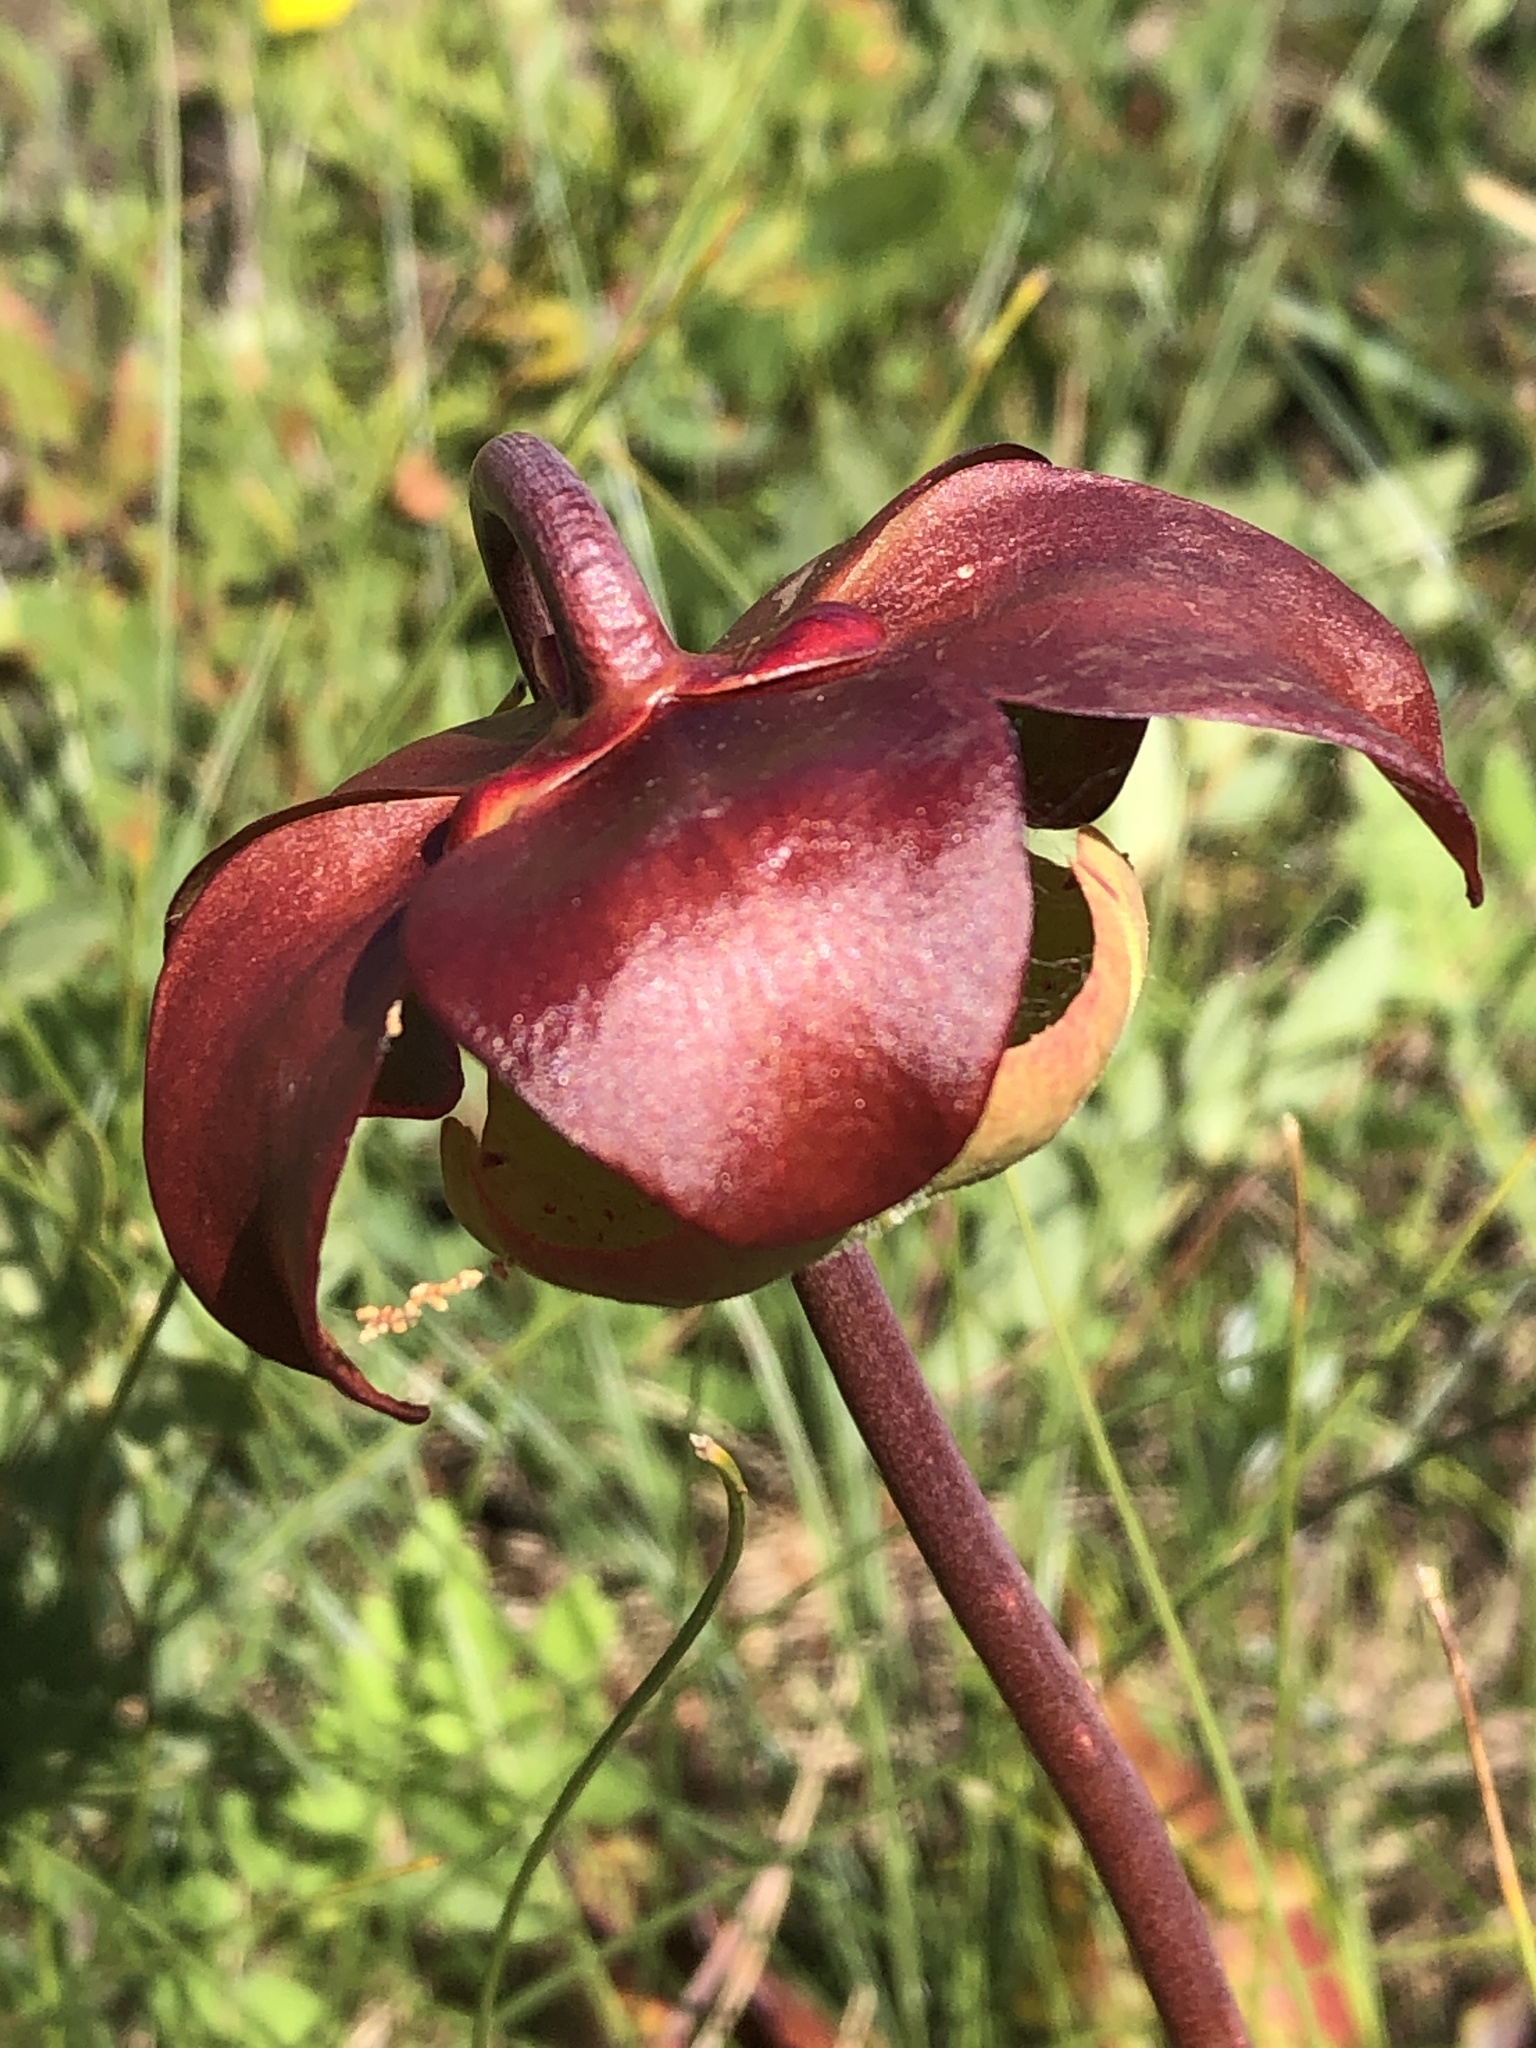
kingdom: Plantae
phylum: Tracheophyta
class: Magnoliopsida
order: Ericales
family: Sarraceniaceae
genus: Sarracenia
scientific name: Sarracenia purpurea
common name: Pitcherplant
